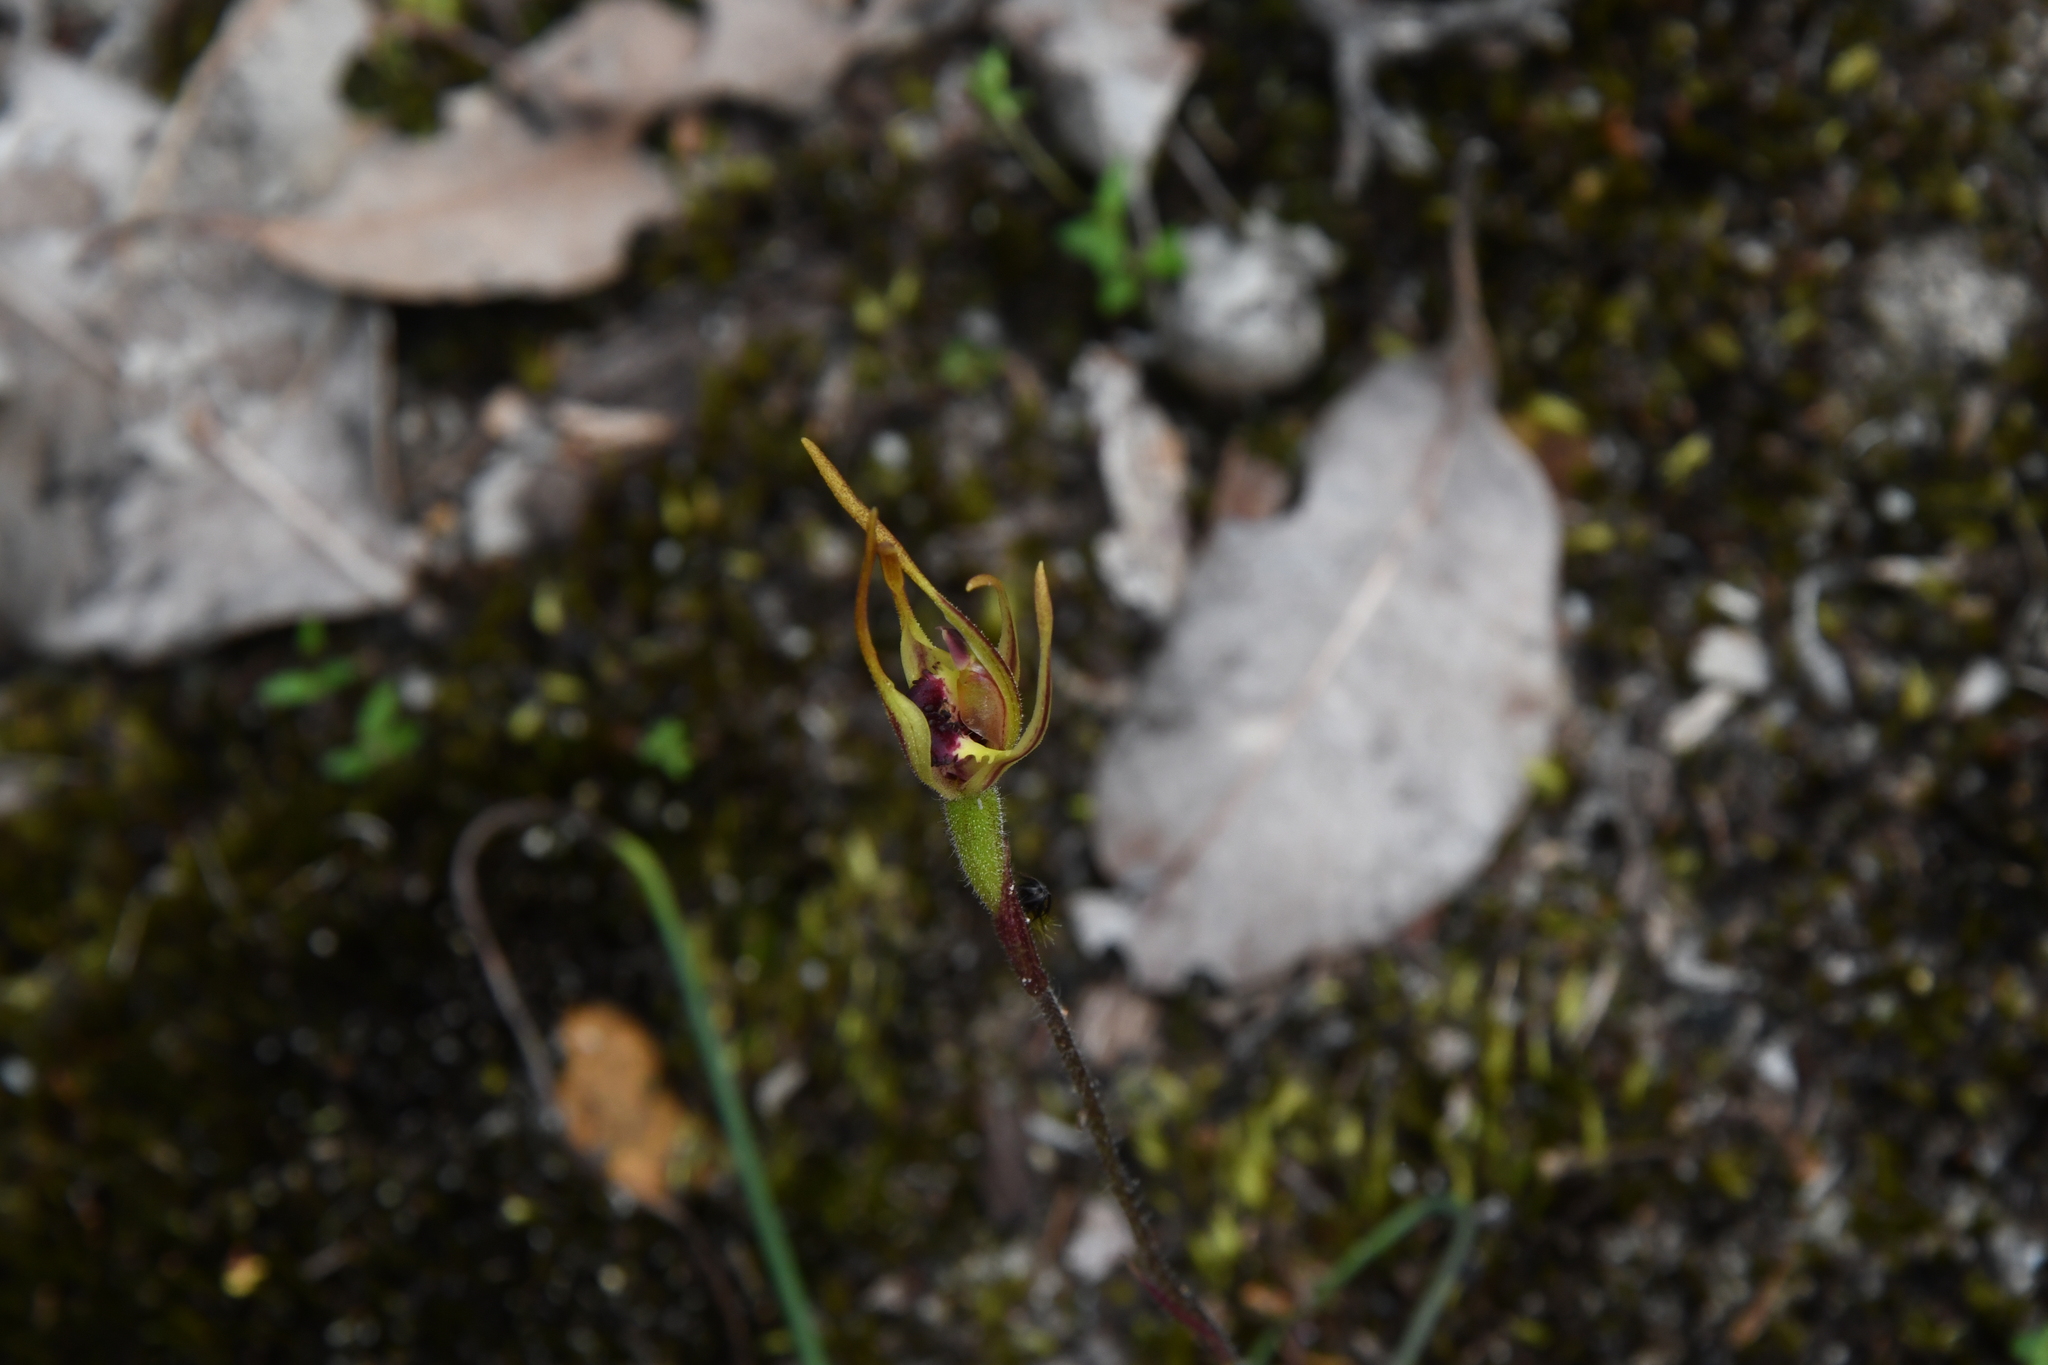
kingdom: Plantae
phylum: Tracheophyta
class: Liliopsida
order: Asparagales
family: Orchidaceae
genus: Caladenia
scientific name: Caladenia ensata
